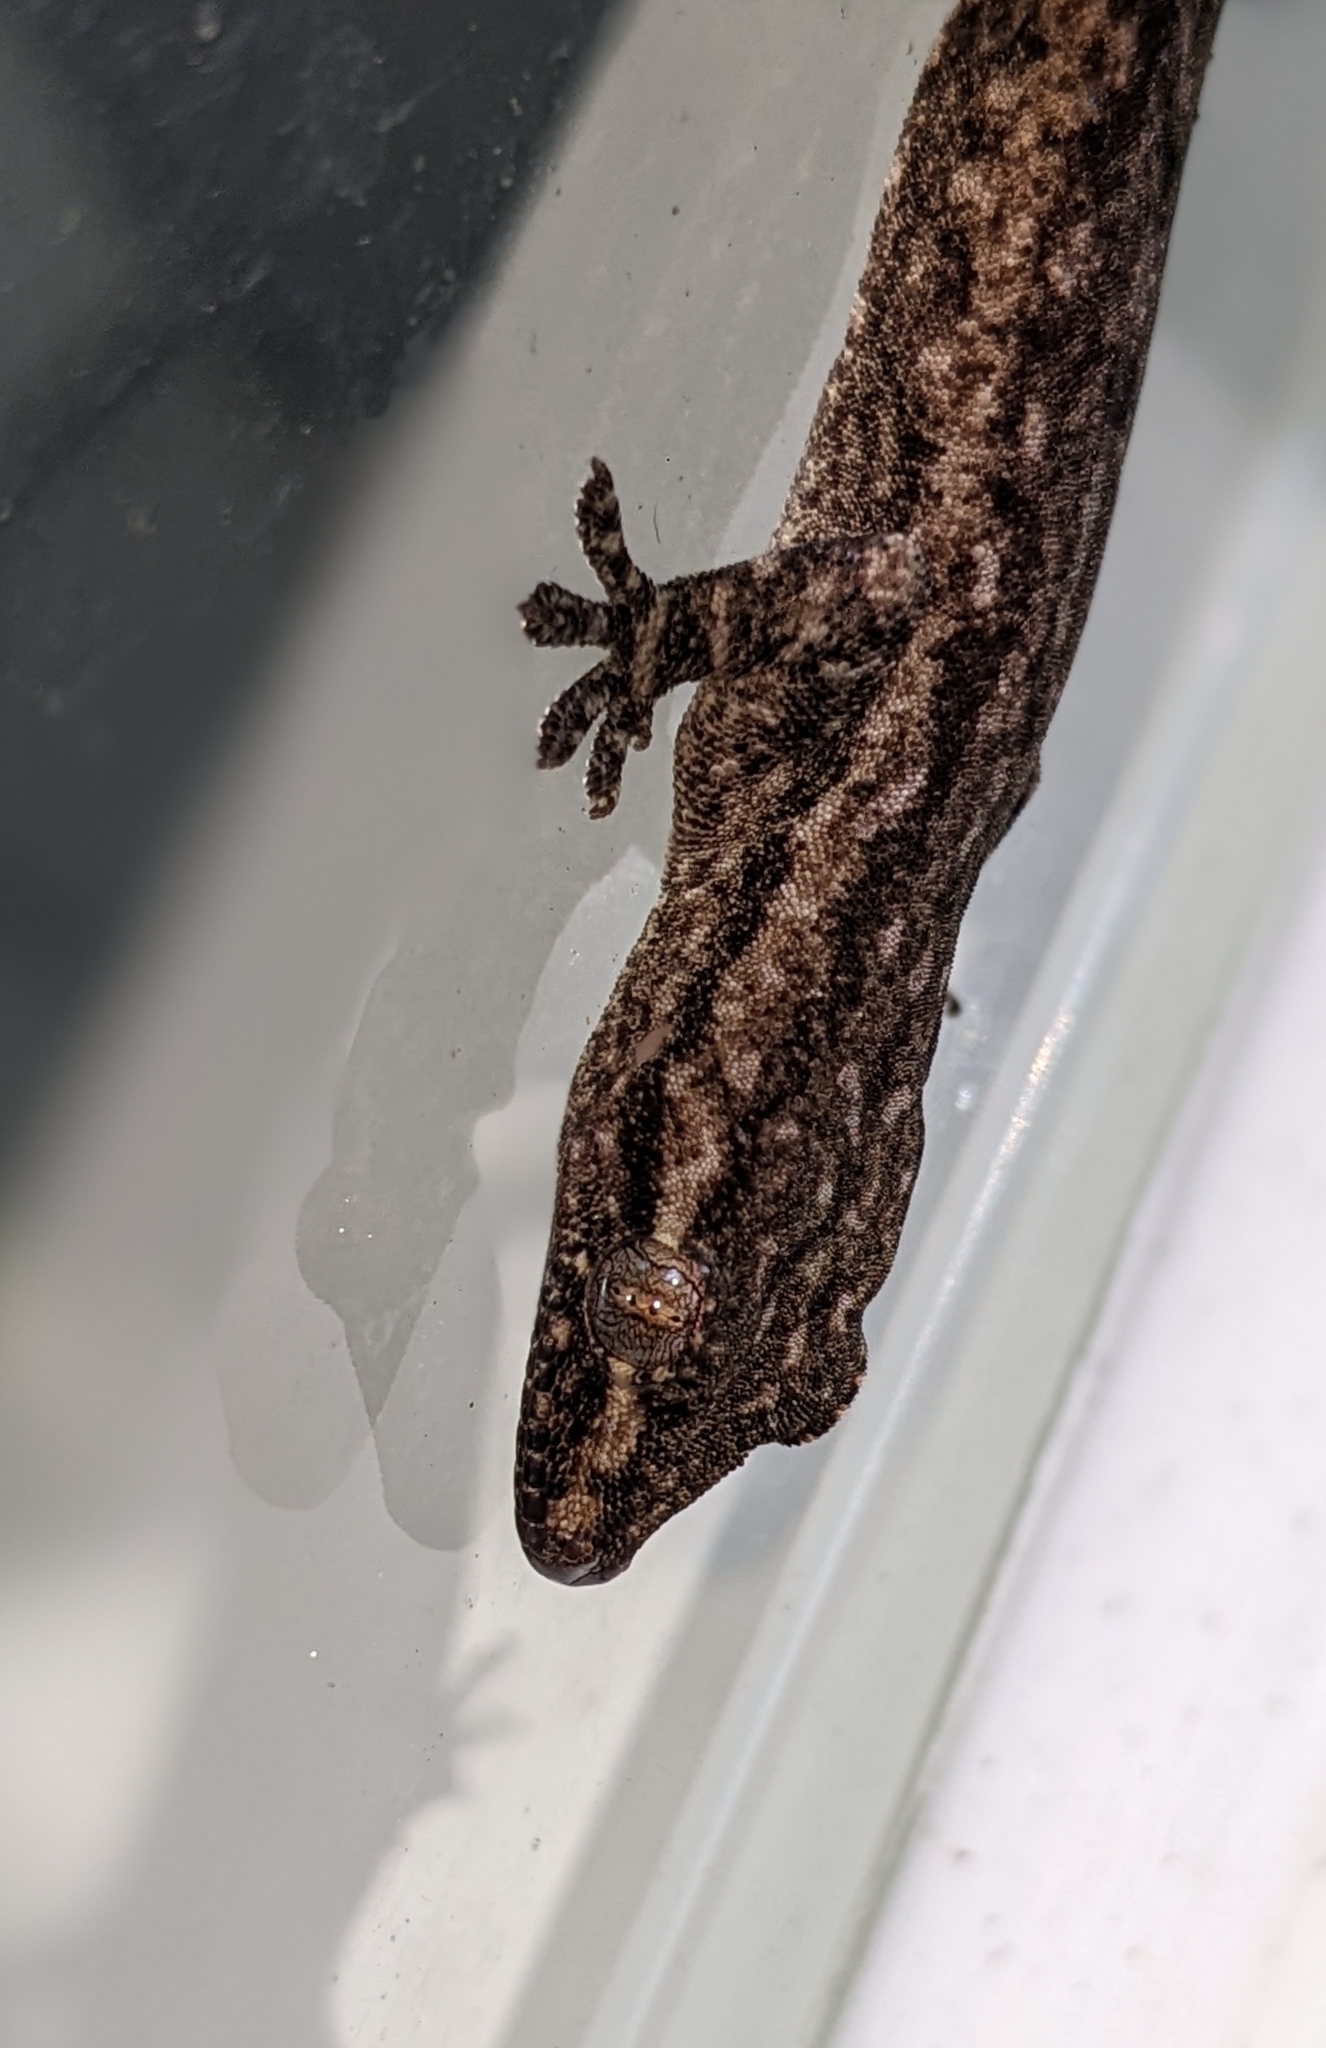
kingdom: Animalia
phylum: Chordata
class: Squamata
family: Gekkonidae
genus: Hemidactylus
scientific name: Hemidactylus frenatus
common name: Common house gecko
